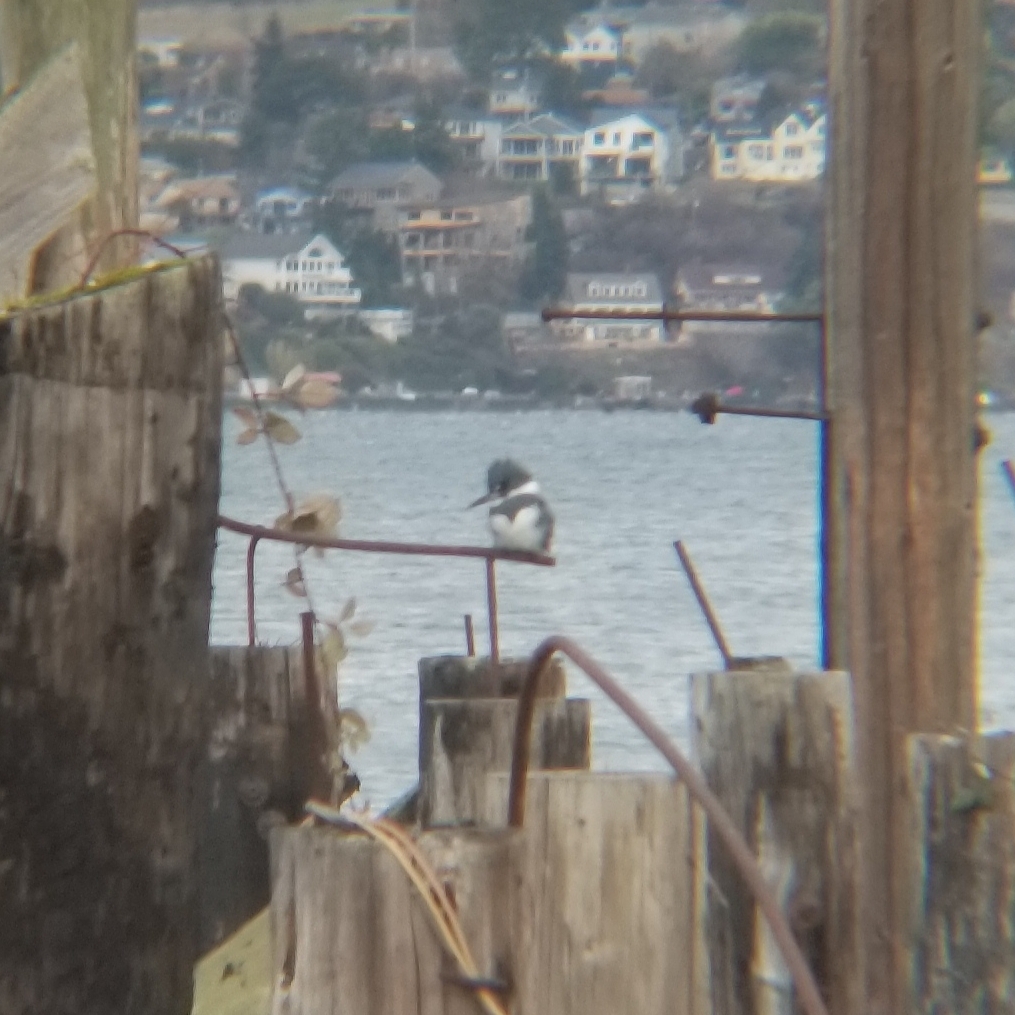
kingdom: Animalia
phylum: Chordata
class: Aves
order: Coraciiformes
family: Alcedinidae
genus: Megaceryle
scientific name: Megaceryle alcyon
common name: Belted kingfisher
